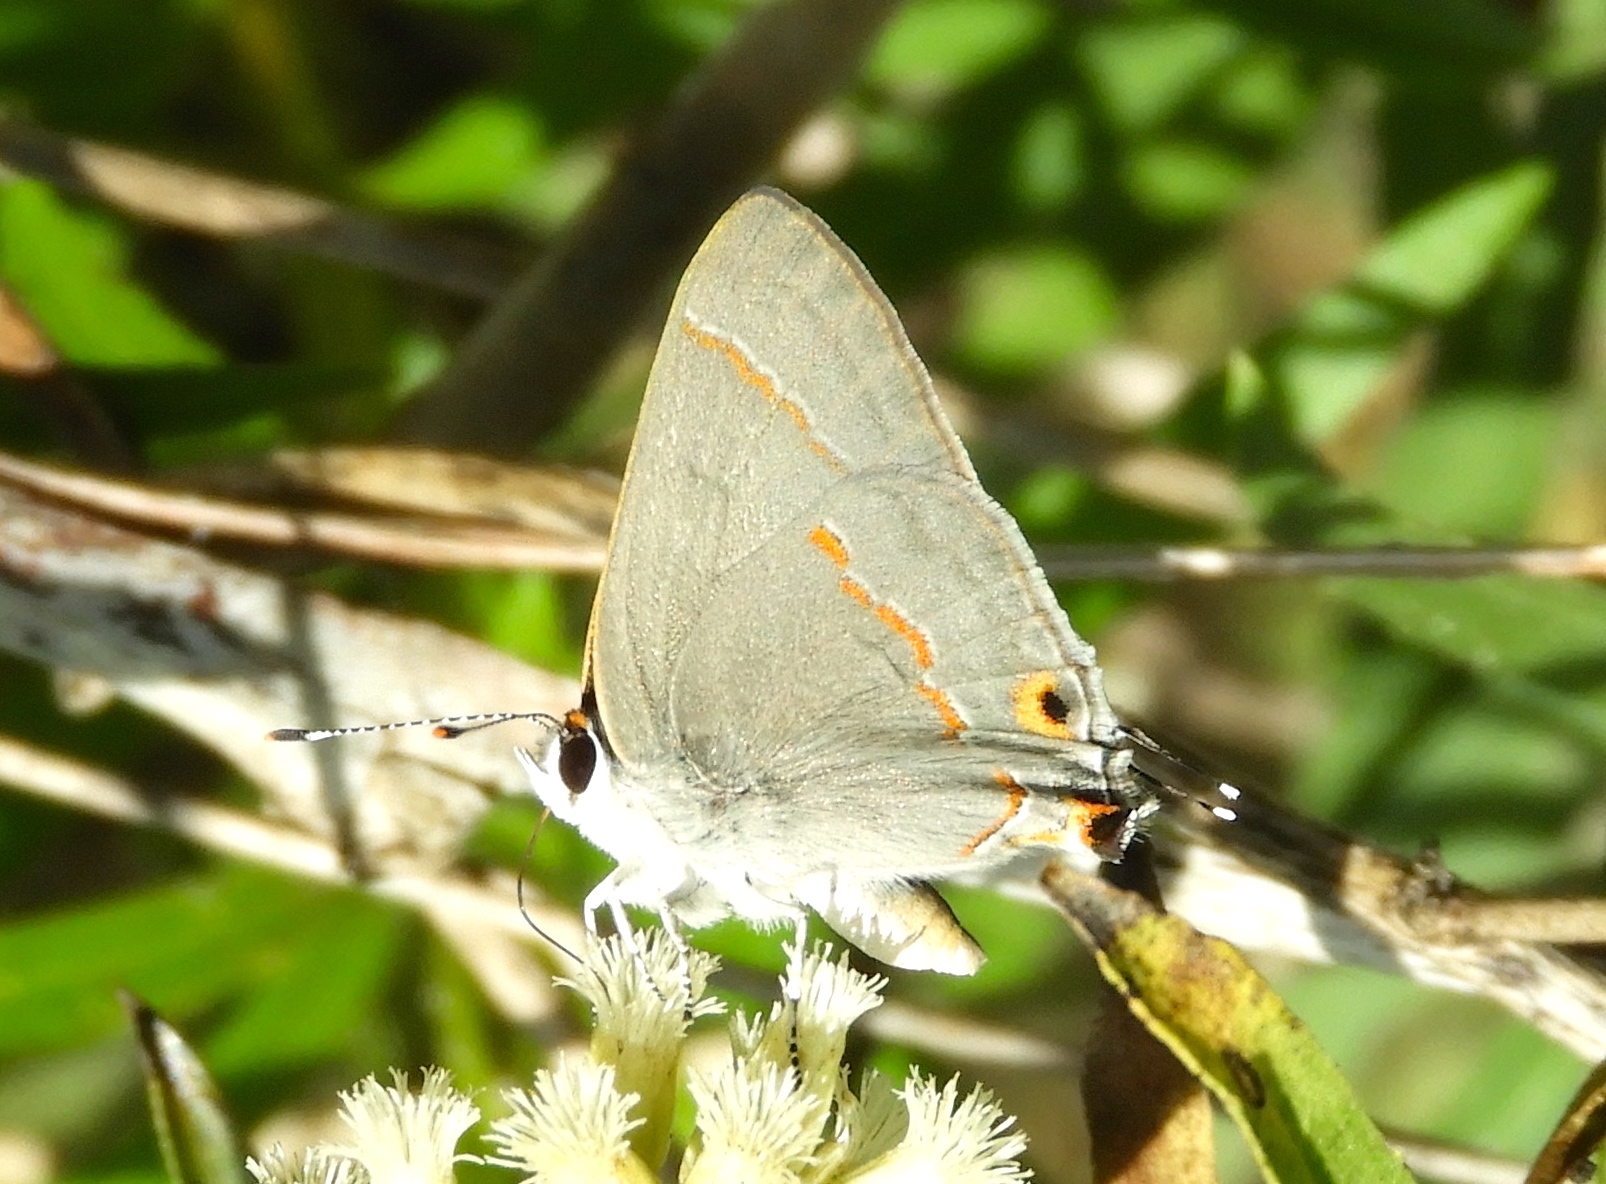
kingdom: Animalia
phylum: Arthropoda
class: Insecta
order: Lepidoptera
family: Lycaenidae
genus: Thecla
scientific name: Thecla bebrycia
